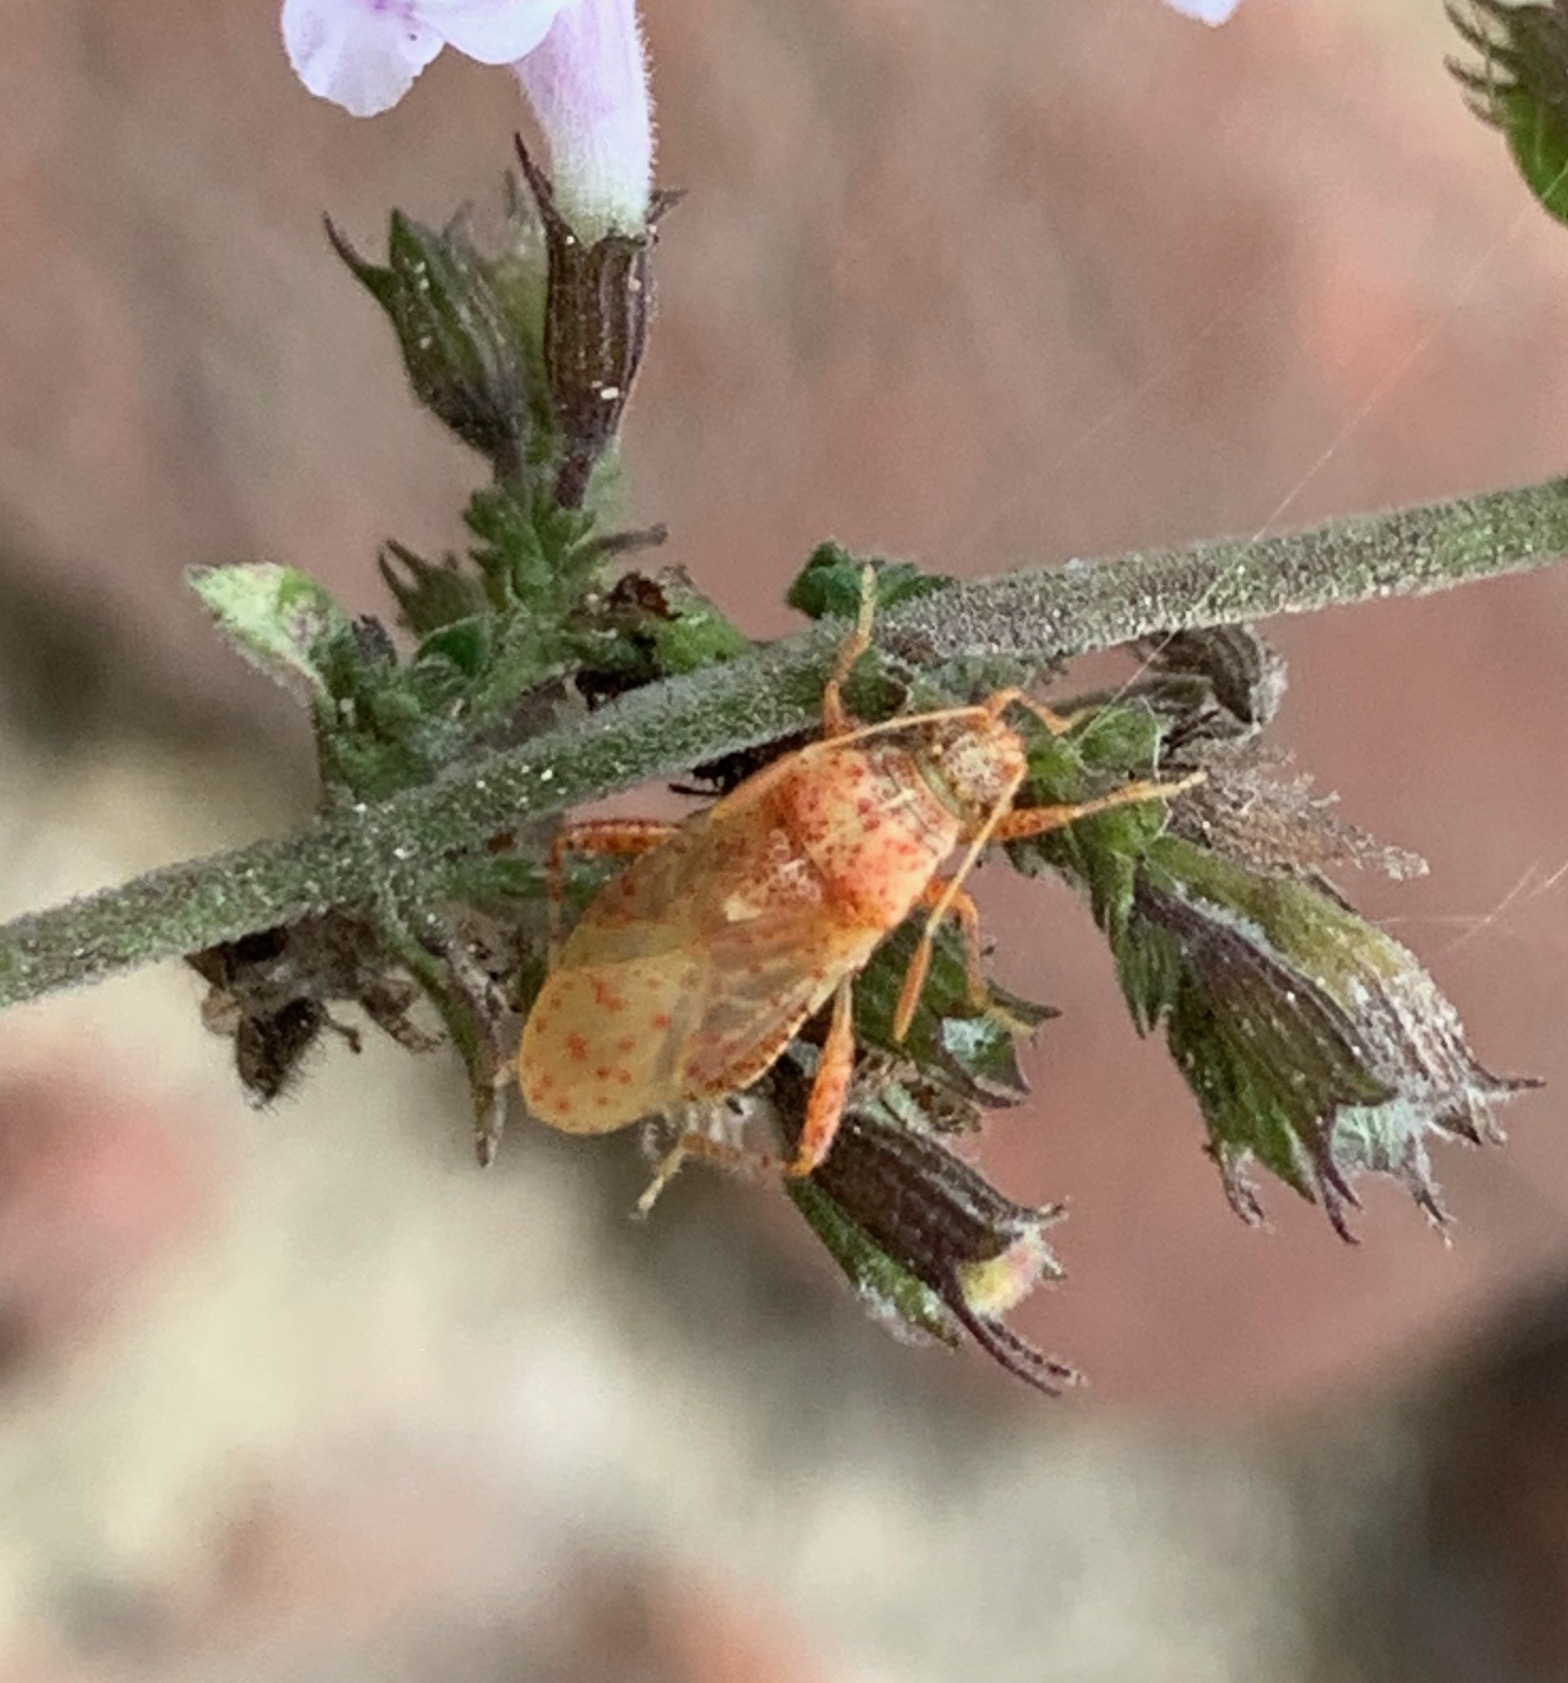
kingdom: Animalia
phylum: Arthropoda
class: Insecta
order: Hemiptera
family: Rhopalidae
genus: Rhopalus
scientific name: Rhopalus subrufus
